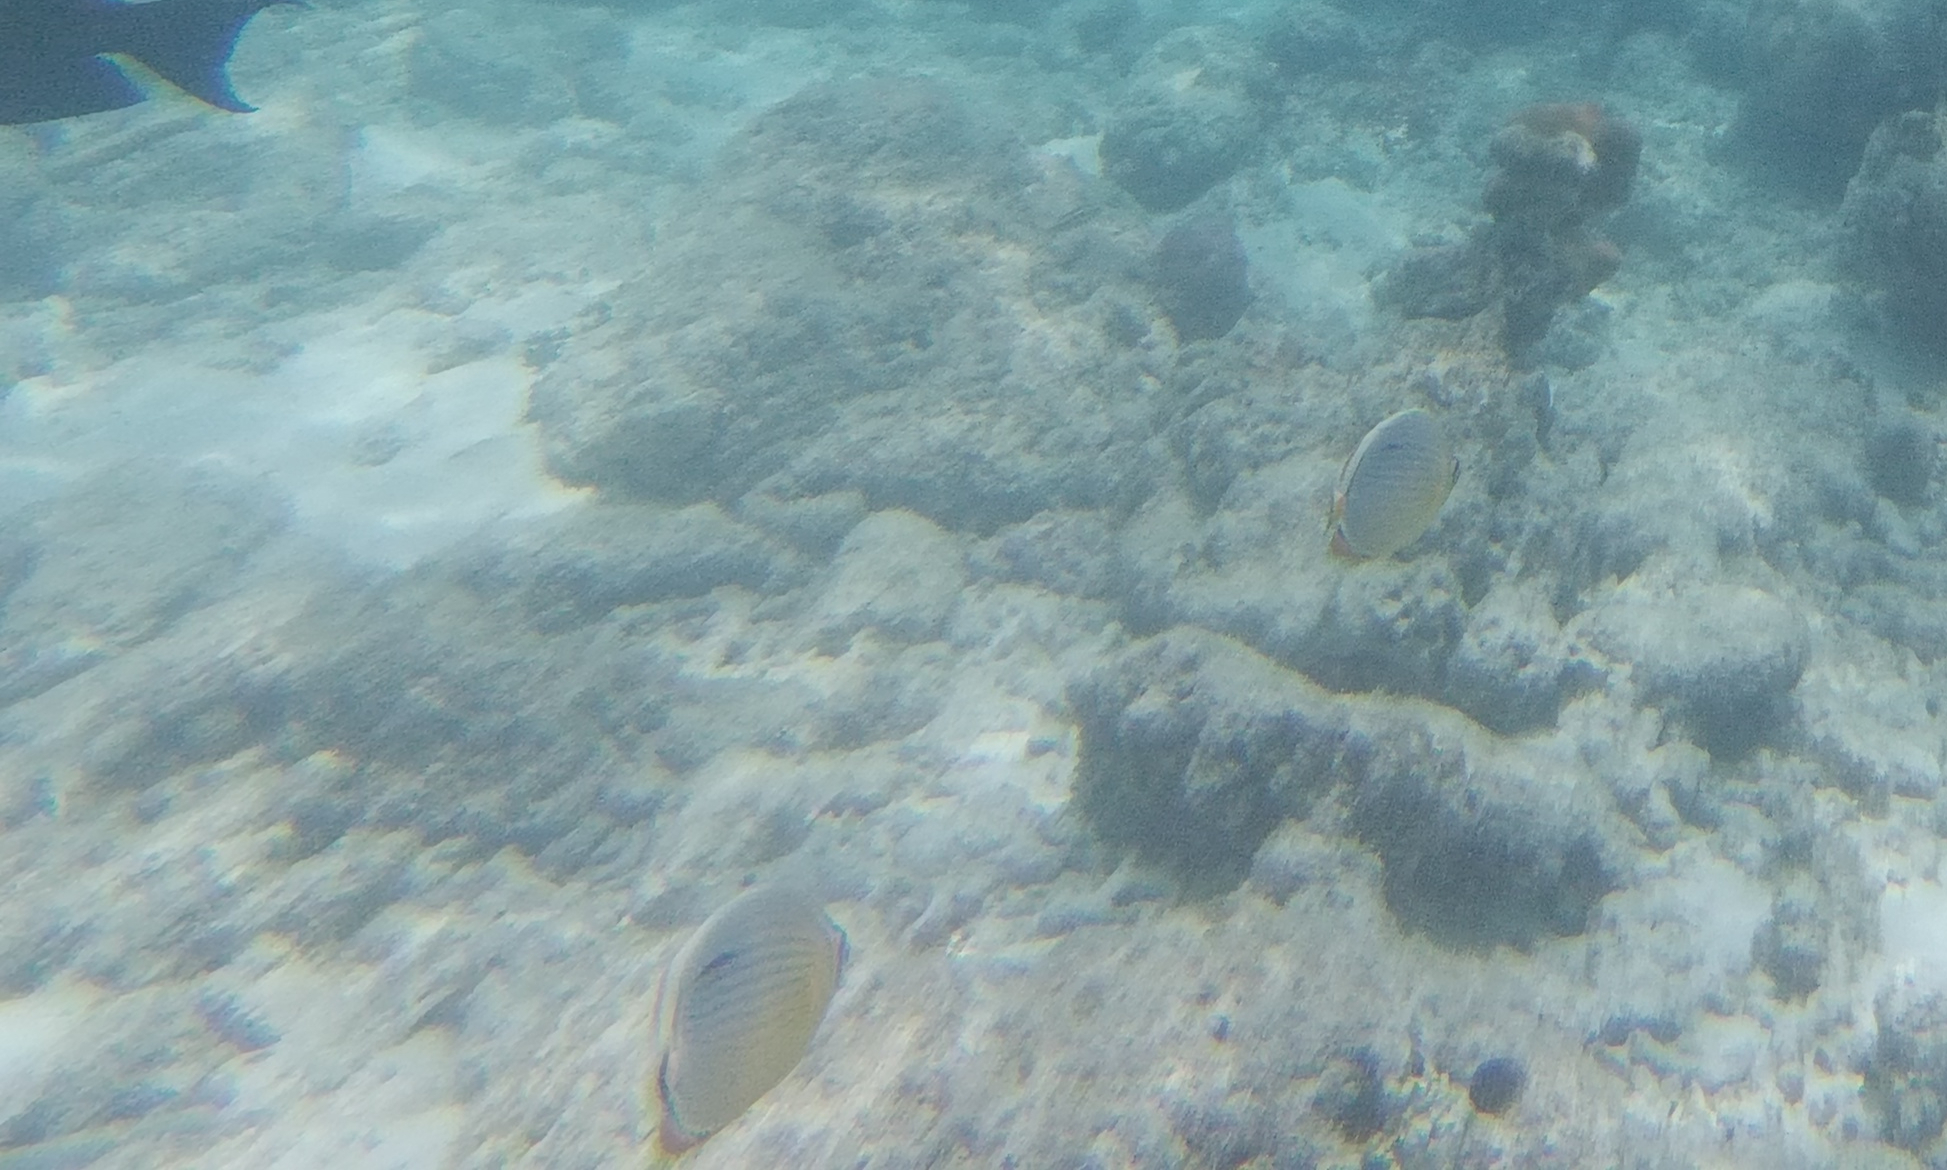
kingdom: Animalia
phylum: Chordata
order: Perciformes
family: Chaetodontidae
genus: Chaetodon
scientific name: Chaetodon trifasciatus
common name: Redfin butterflyfish
